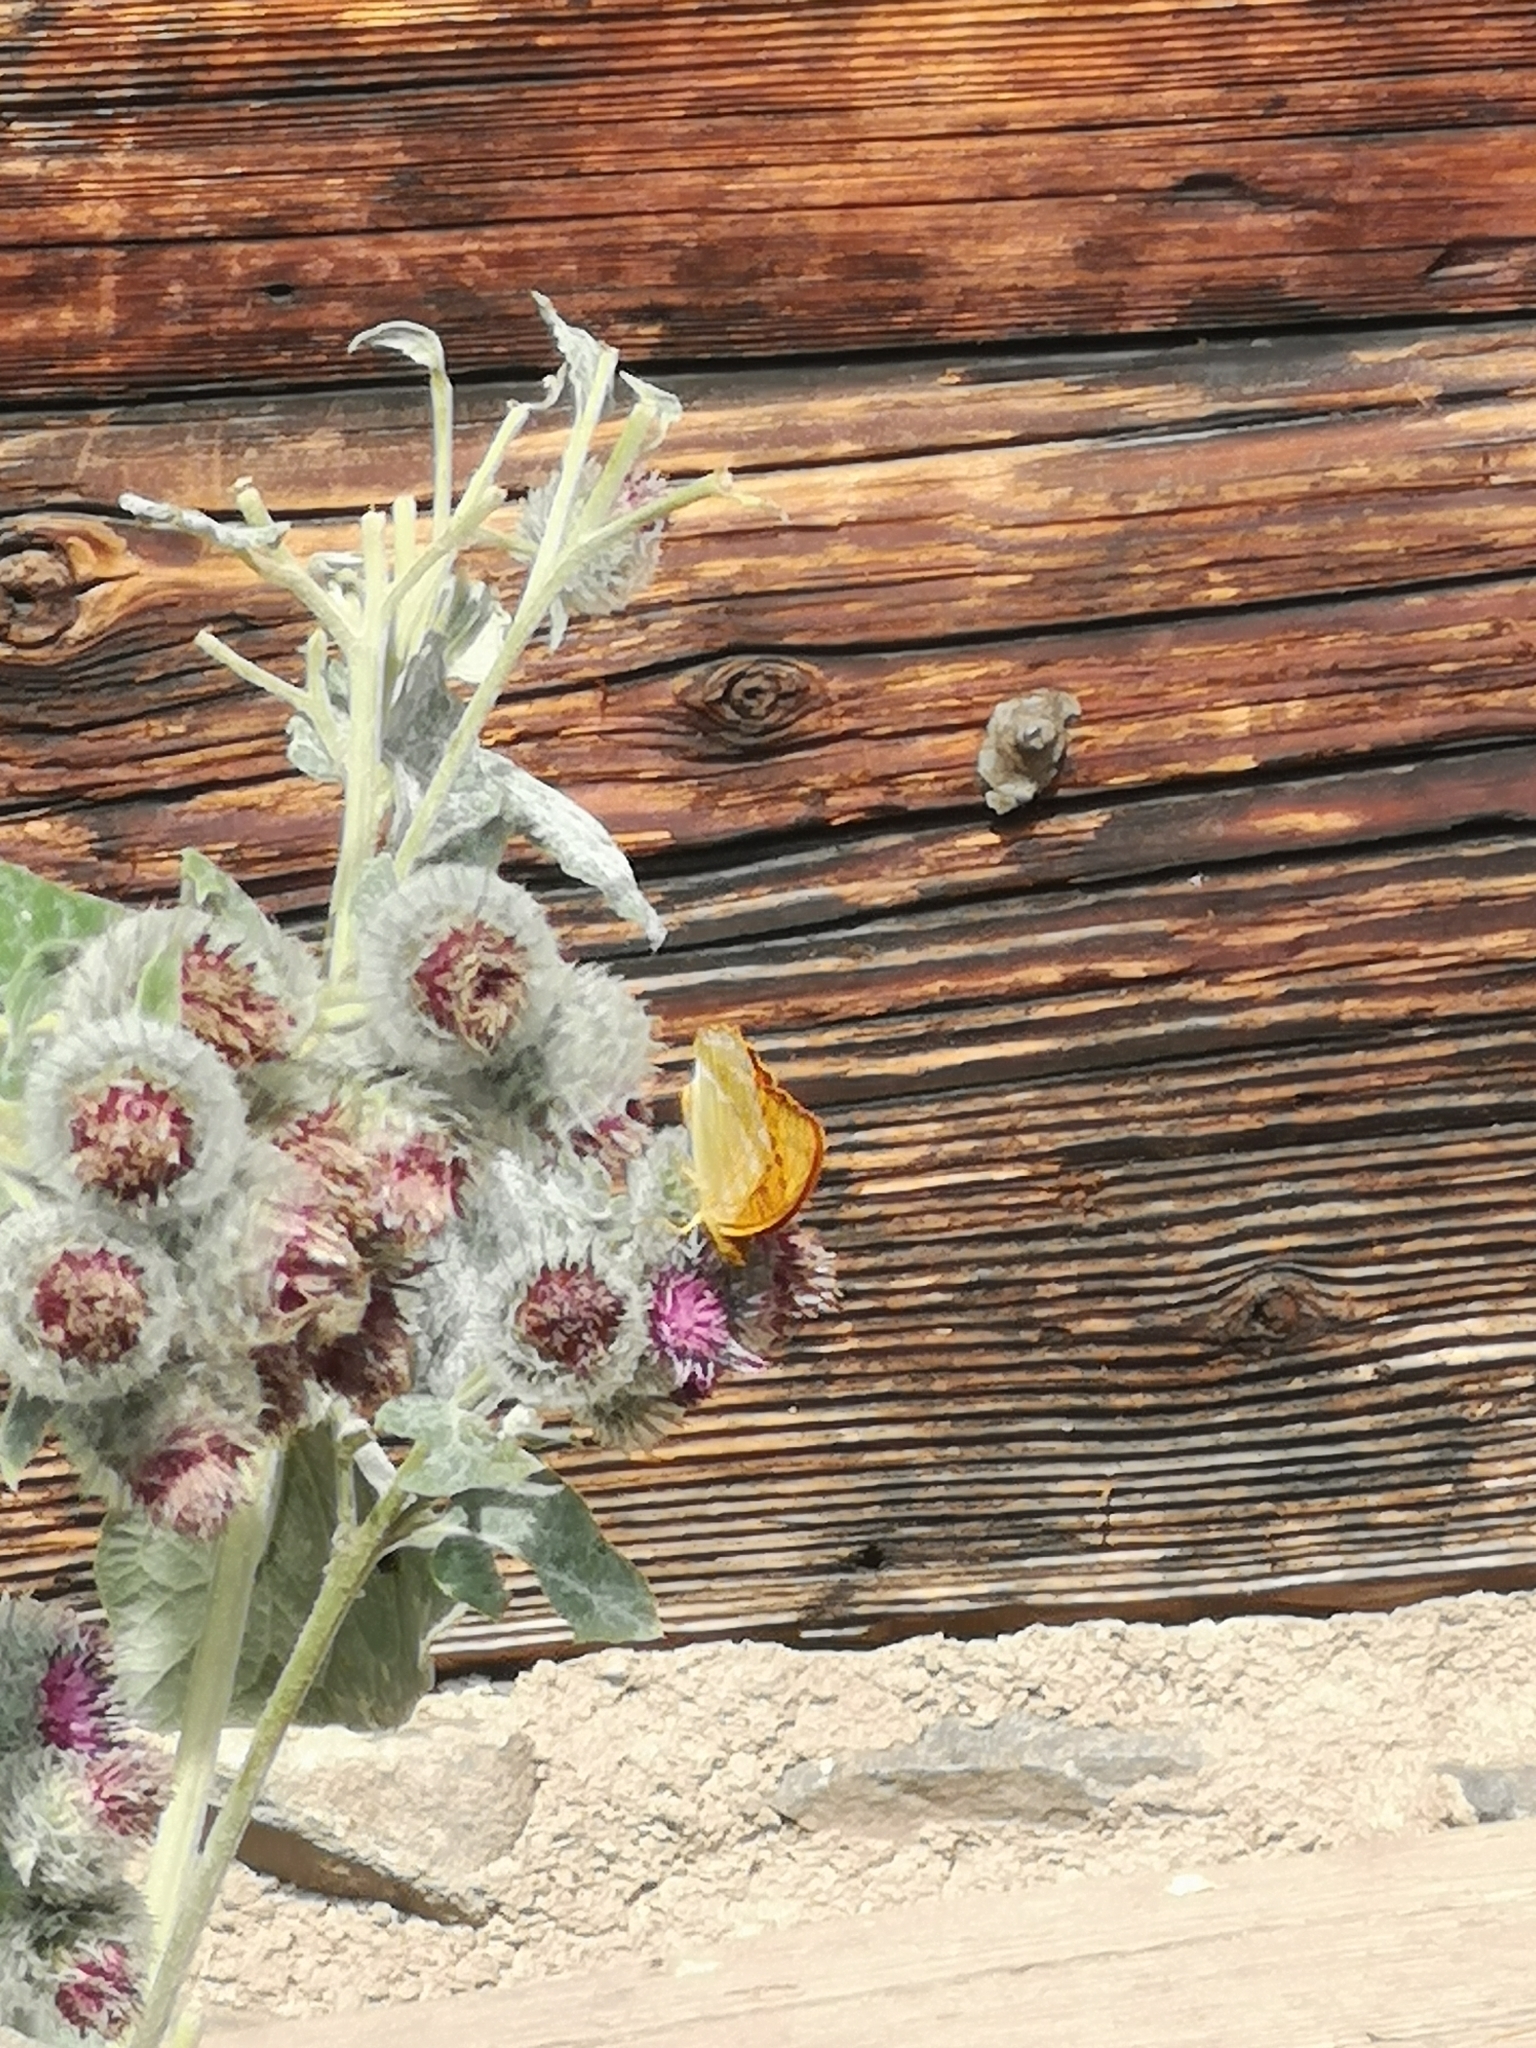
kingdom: Animalia
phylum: Arthropoda
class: Insecta
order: Lepidoptera
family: Nymphalidae
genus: Argynnis
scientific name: Argynnis paphia
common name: Silver-washed fritillary
